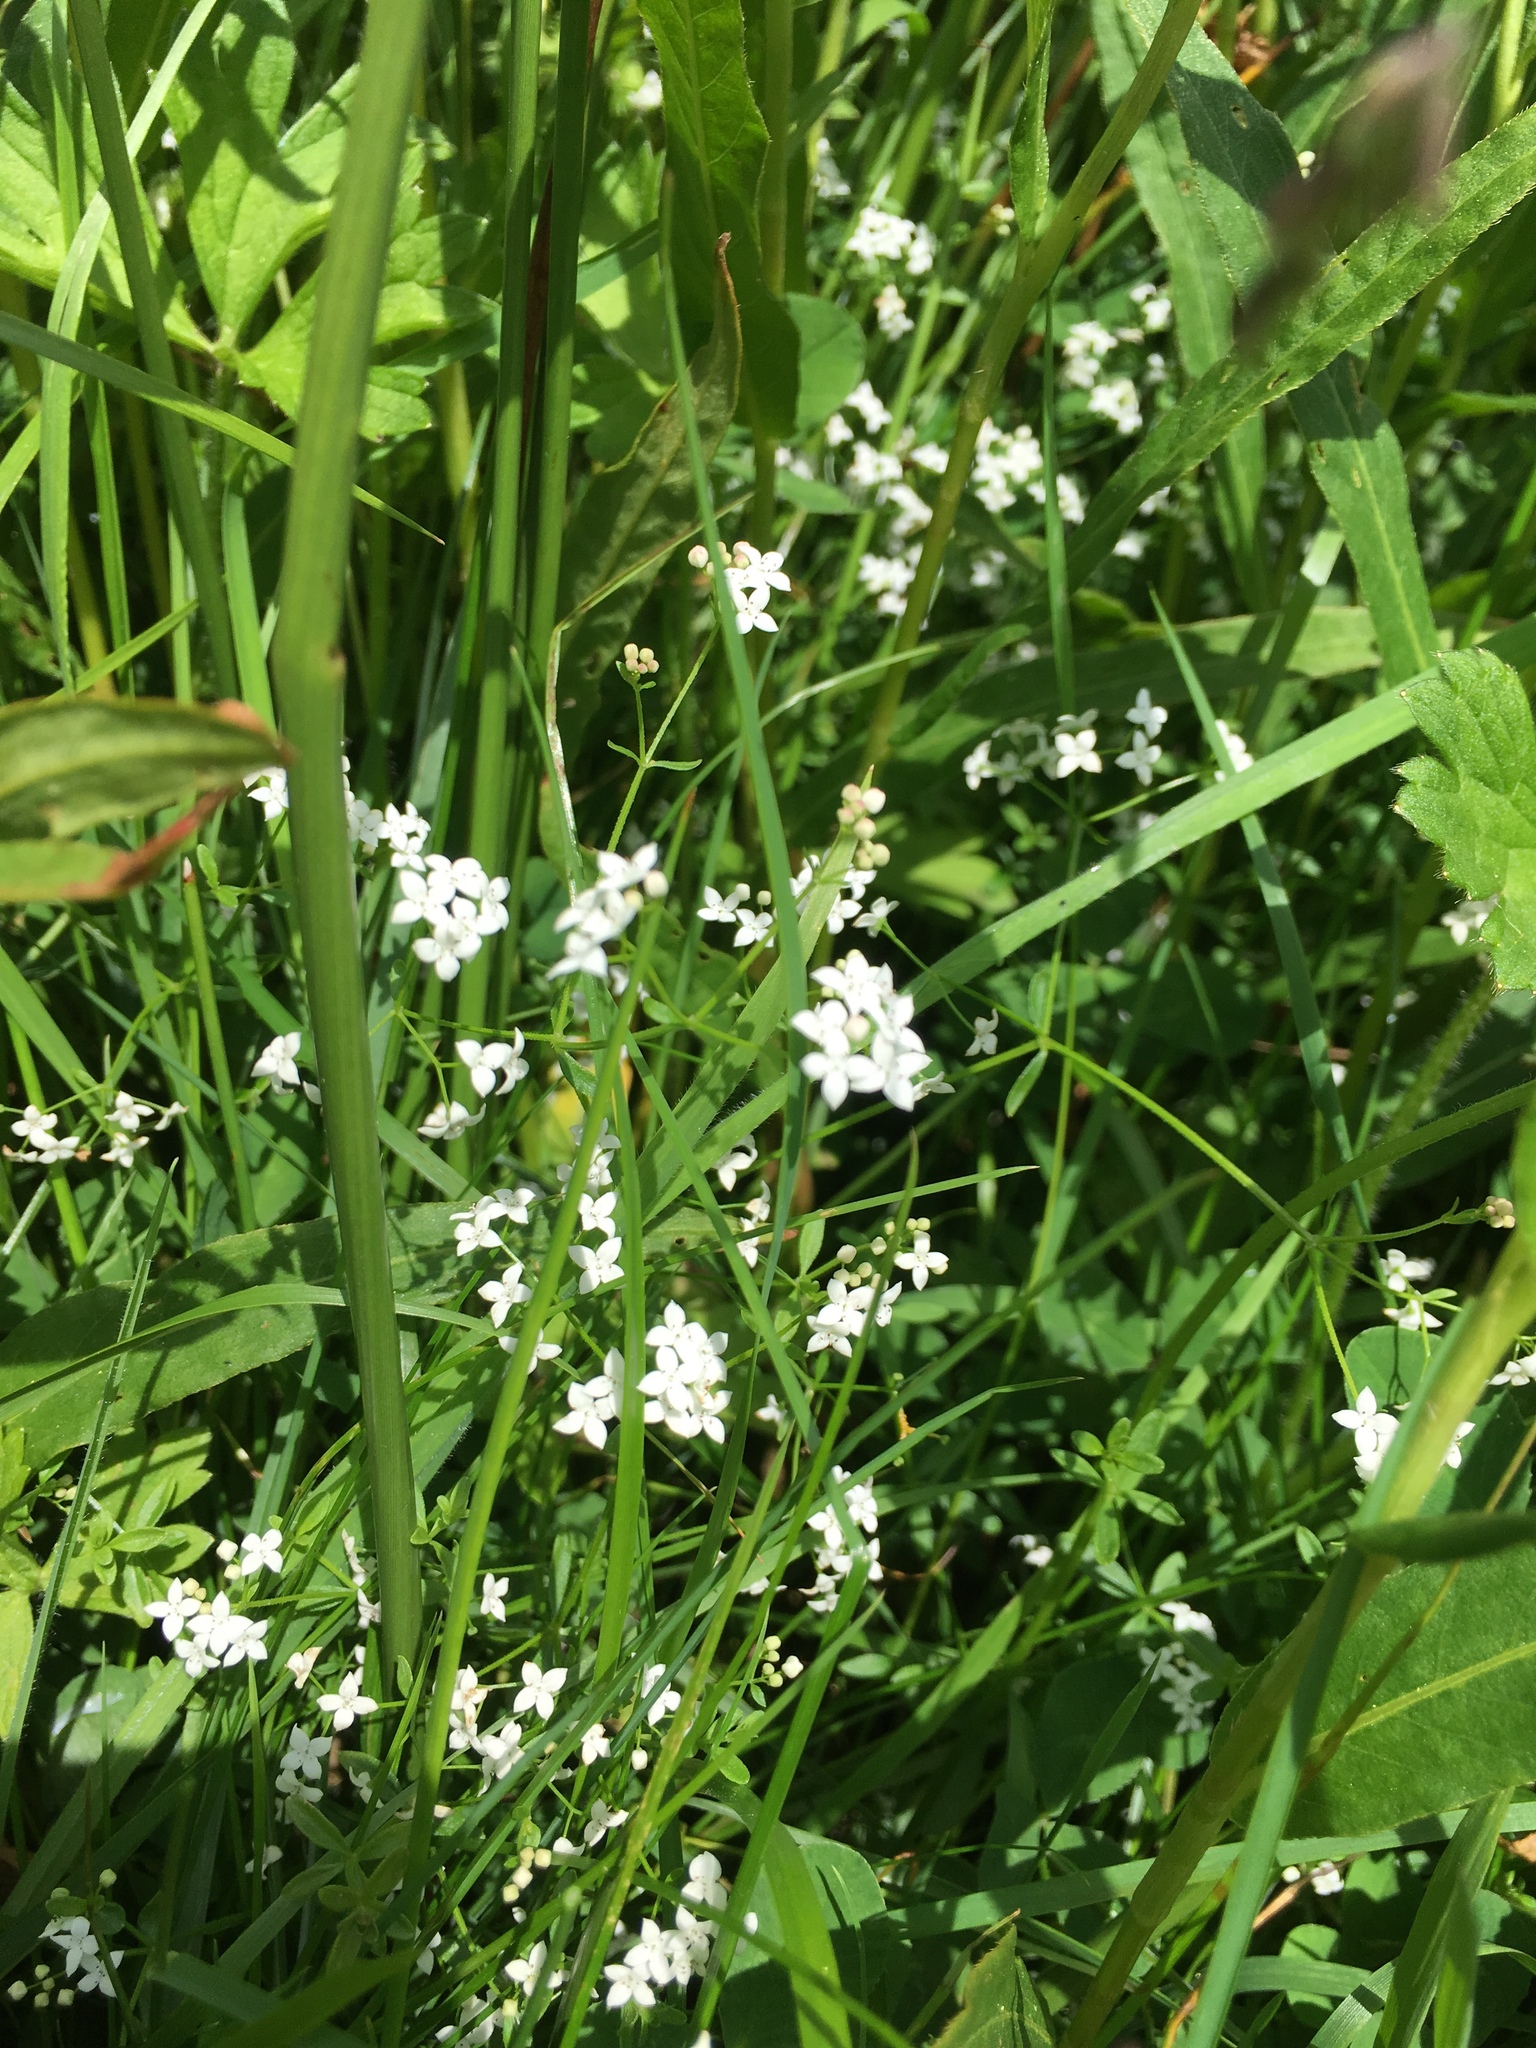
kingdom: Plantae
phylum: Tracheophyta
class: Magnoliopsida
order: Gentianales
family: Rubiaceae
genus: Galium
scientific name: Galium palustre
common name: Common marsh-bedstraw
